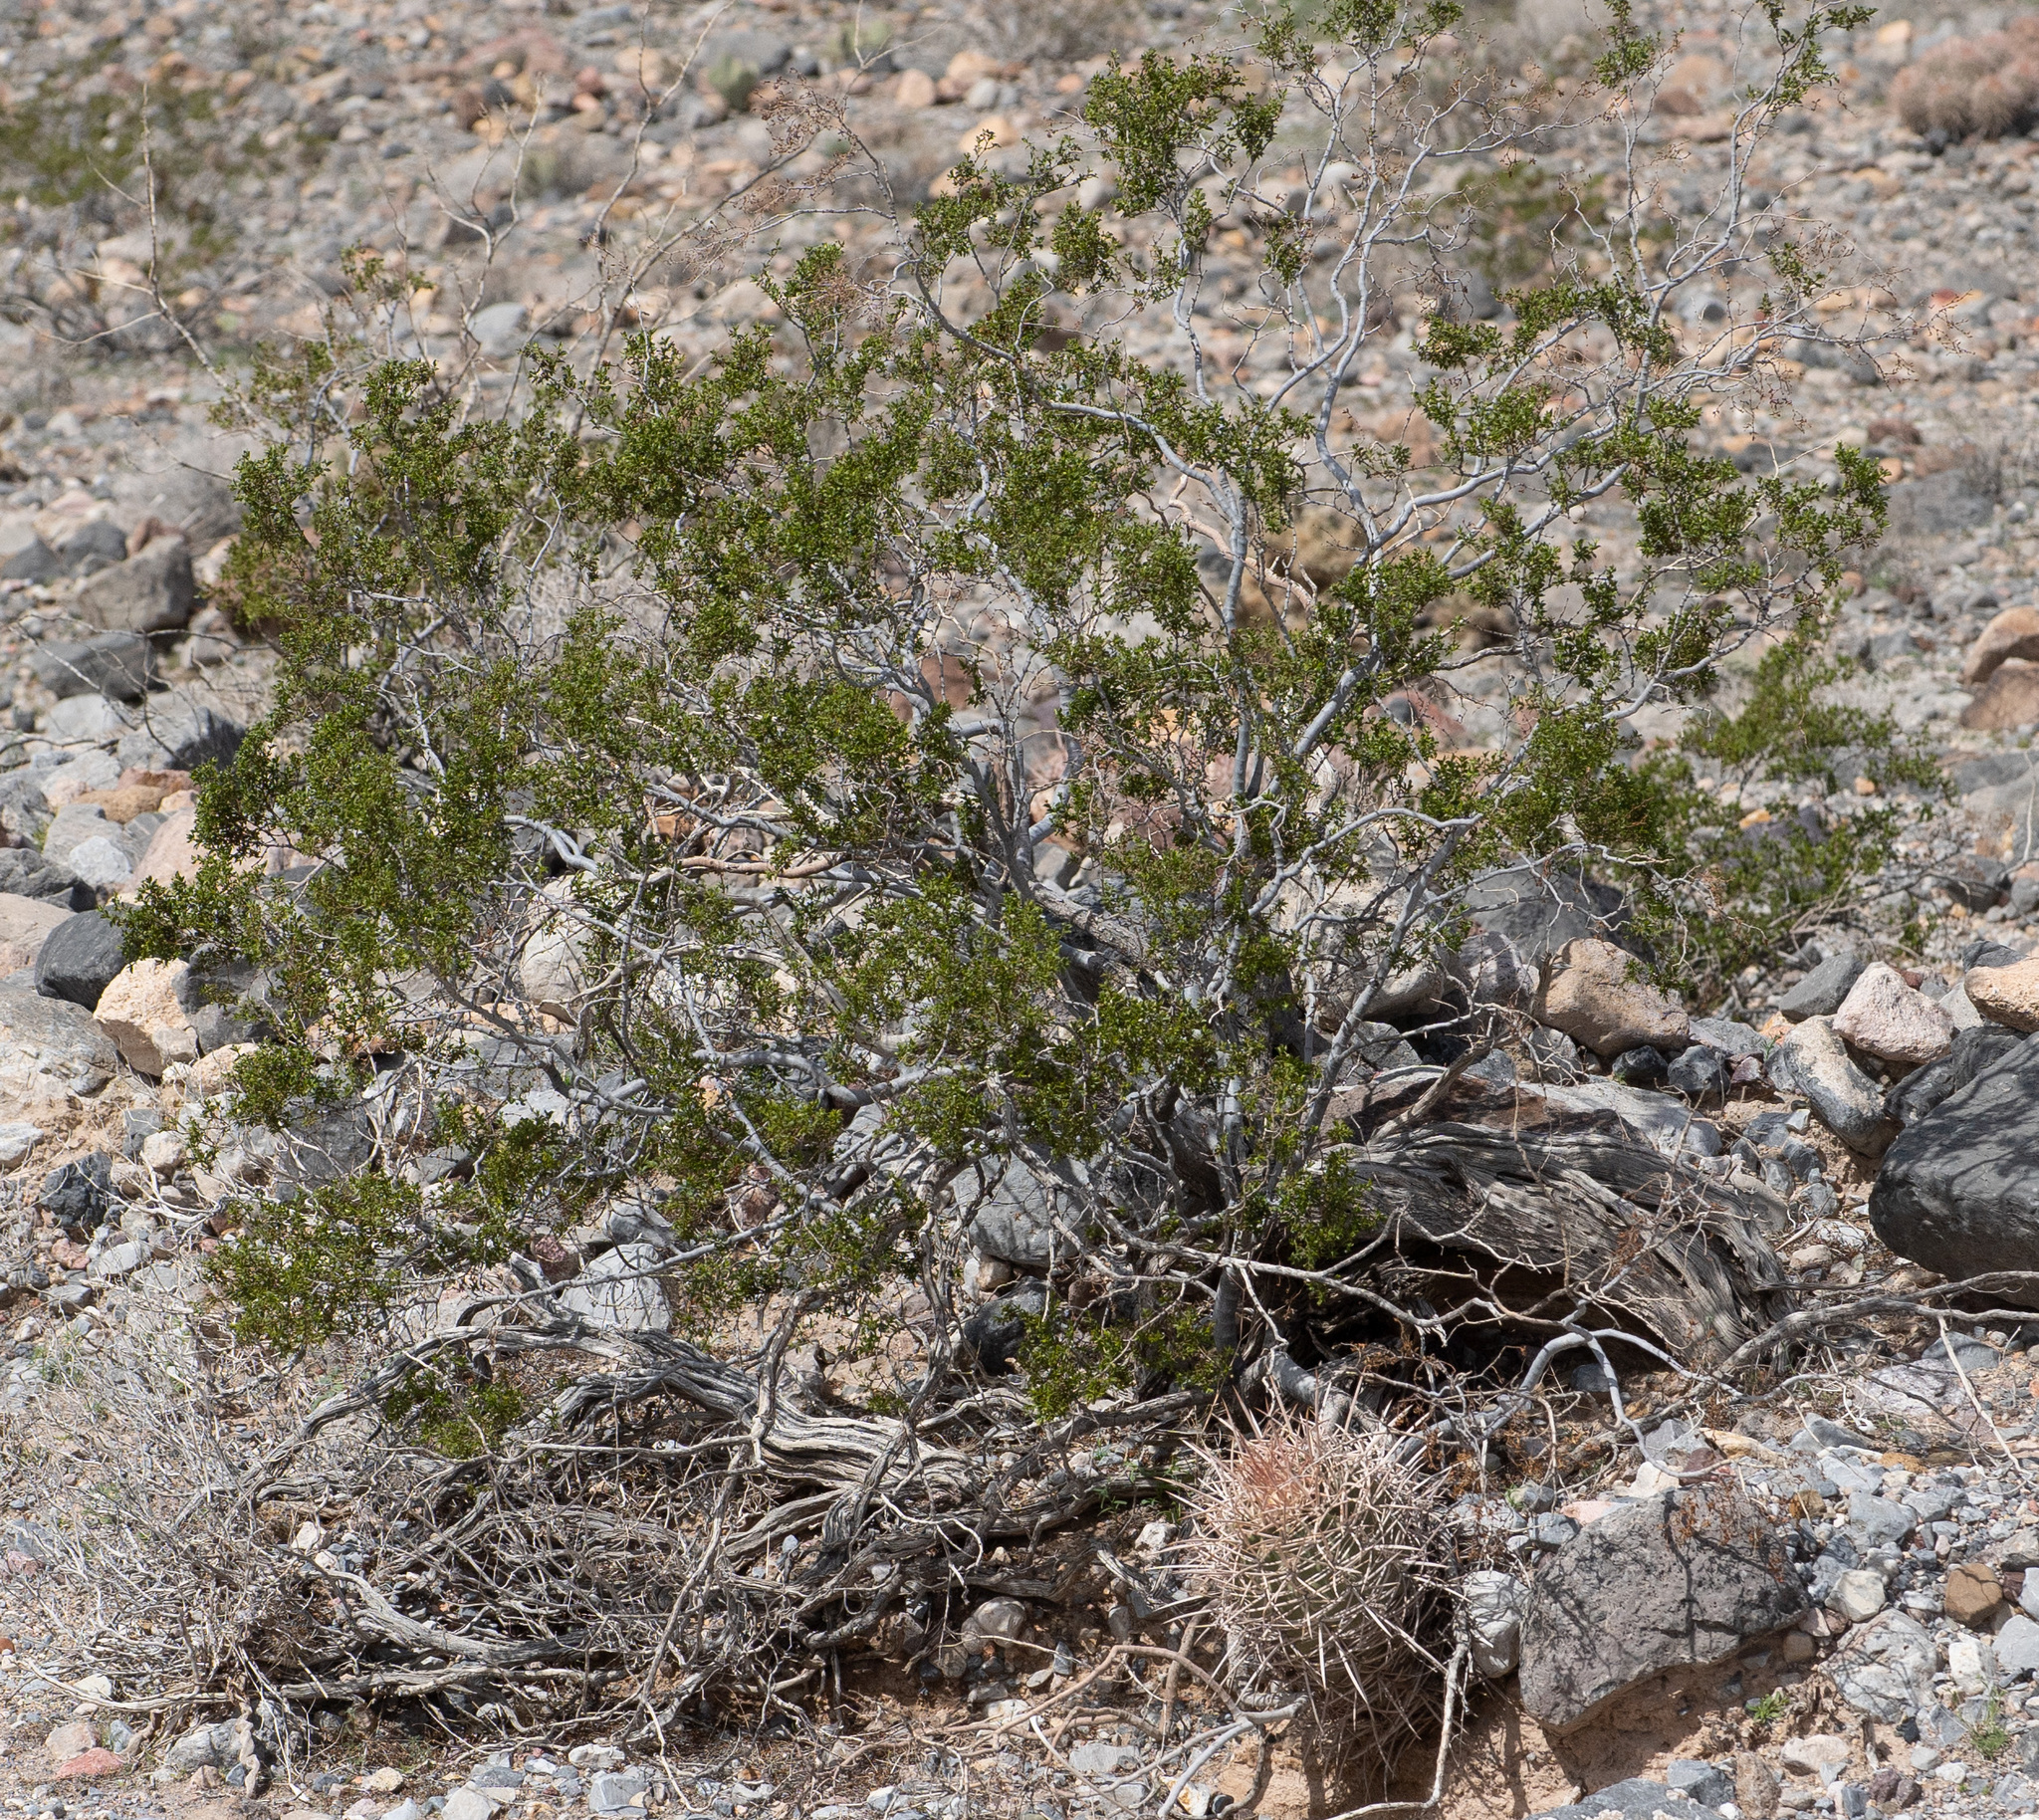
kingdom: Plantae
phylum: Tracheophyta
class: Magnoliopsida
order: Zygophyllales
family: Zygophyllaceae
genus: Larrea
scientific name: Larrea tridentata
